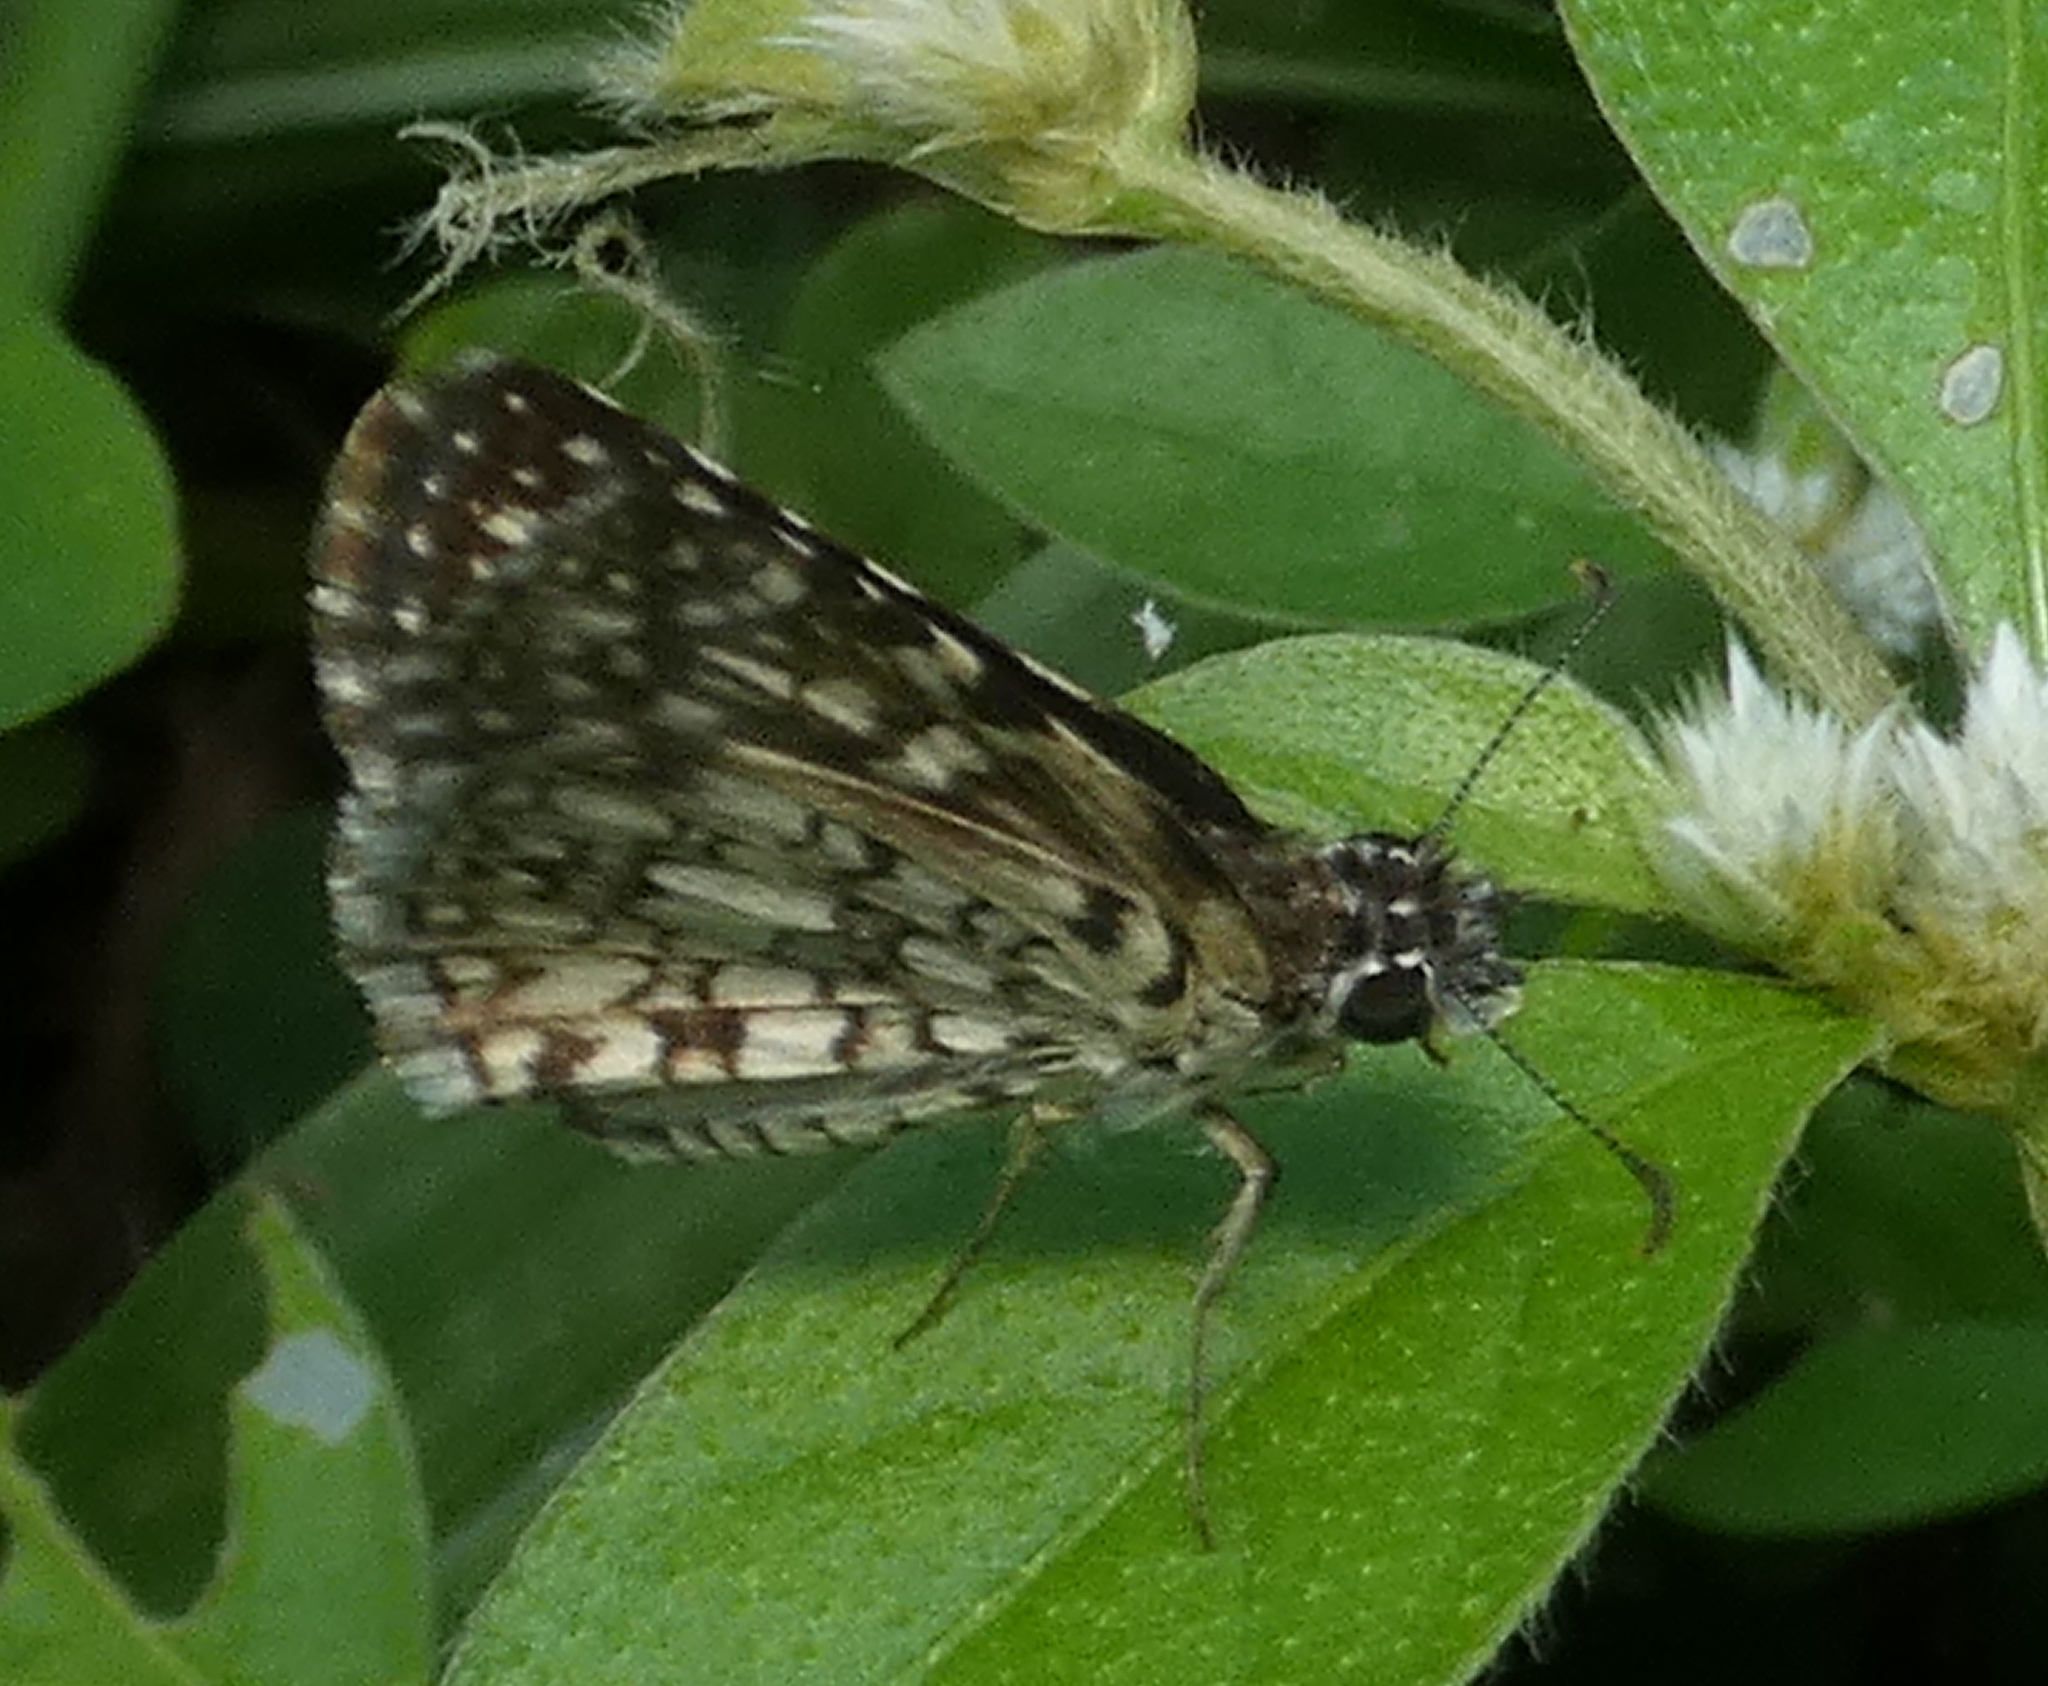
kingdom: Animalia
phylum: Arthropoda
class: Insecta
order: Lepidoptera
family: Hesperiidae
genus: Pyrgus
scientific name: Pyrgus oileus
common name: Tropical checkered-skipper
